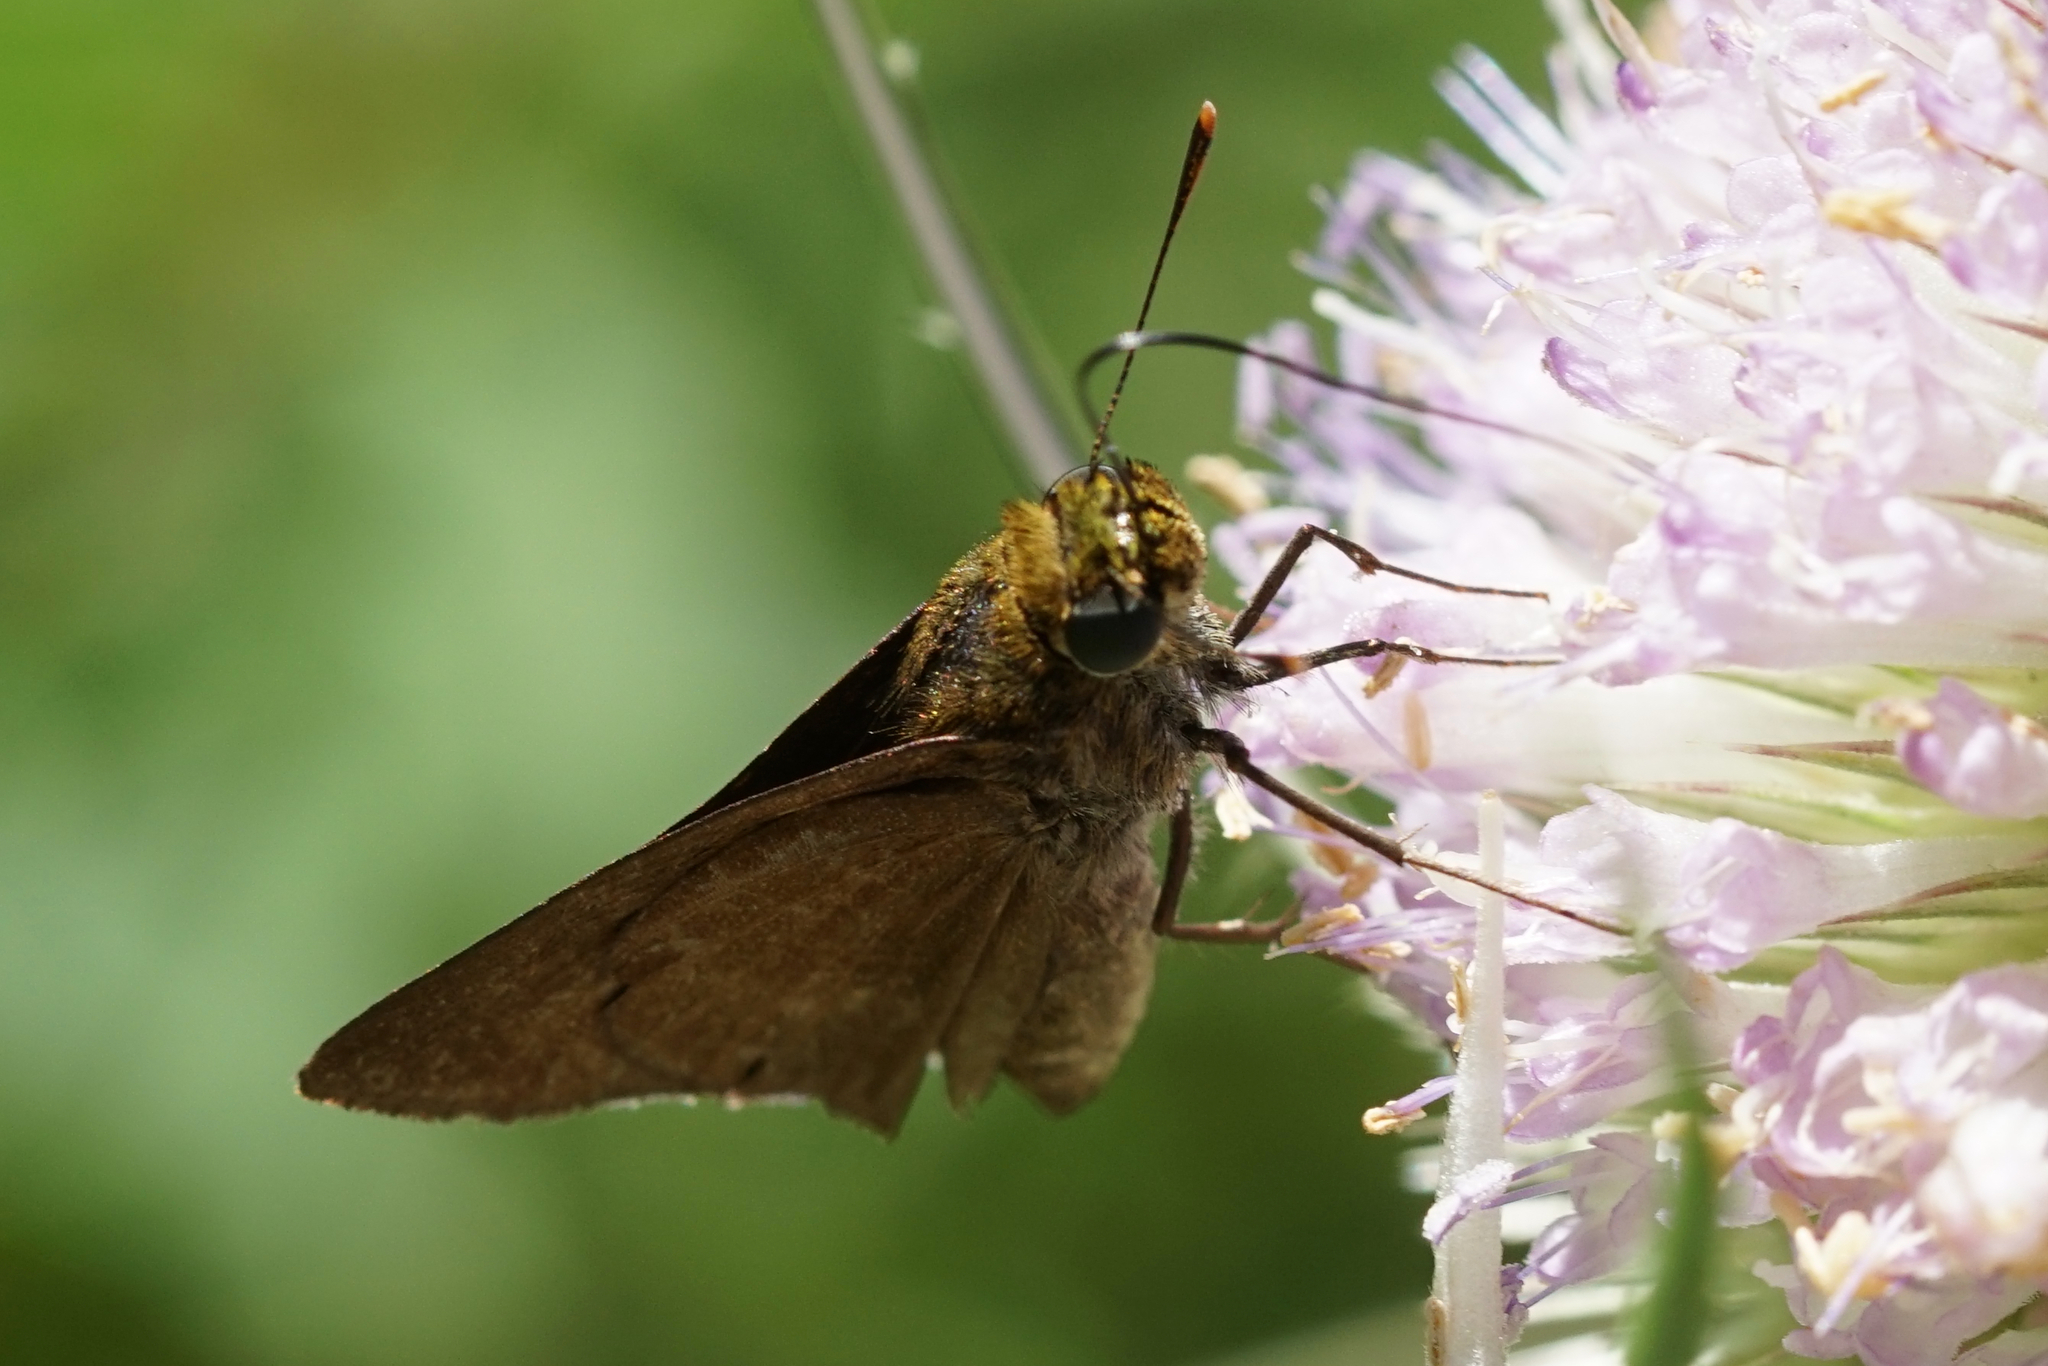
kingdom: Animalia
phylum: Arthropoda
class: Insecta
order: Lepidoptera
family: Hesperiidae
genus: Euphyes
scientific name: Euphyes vestris
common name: Dun skipper
